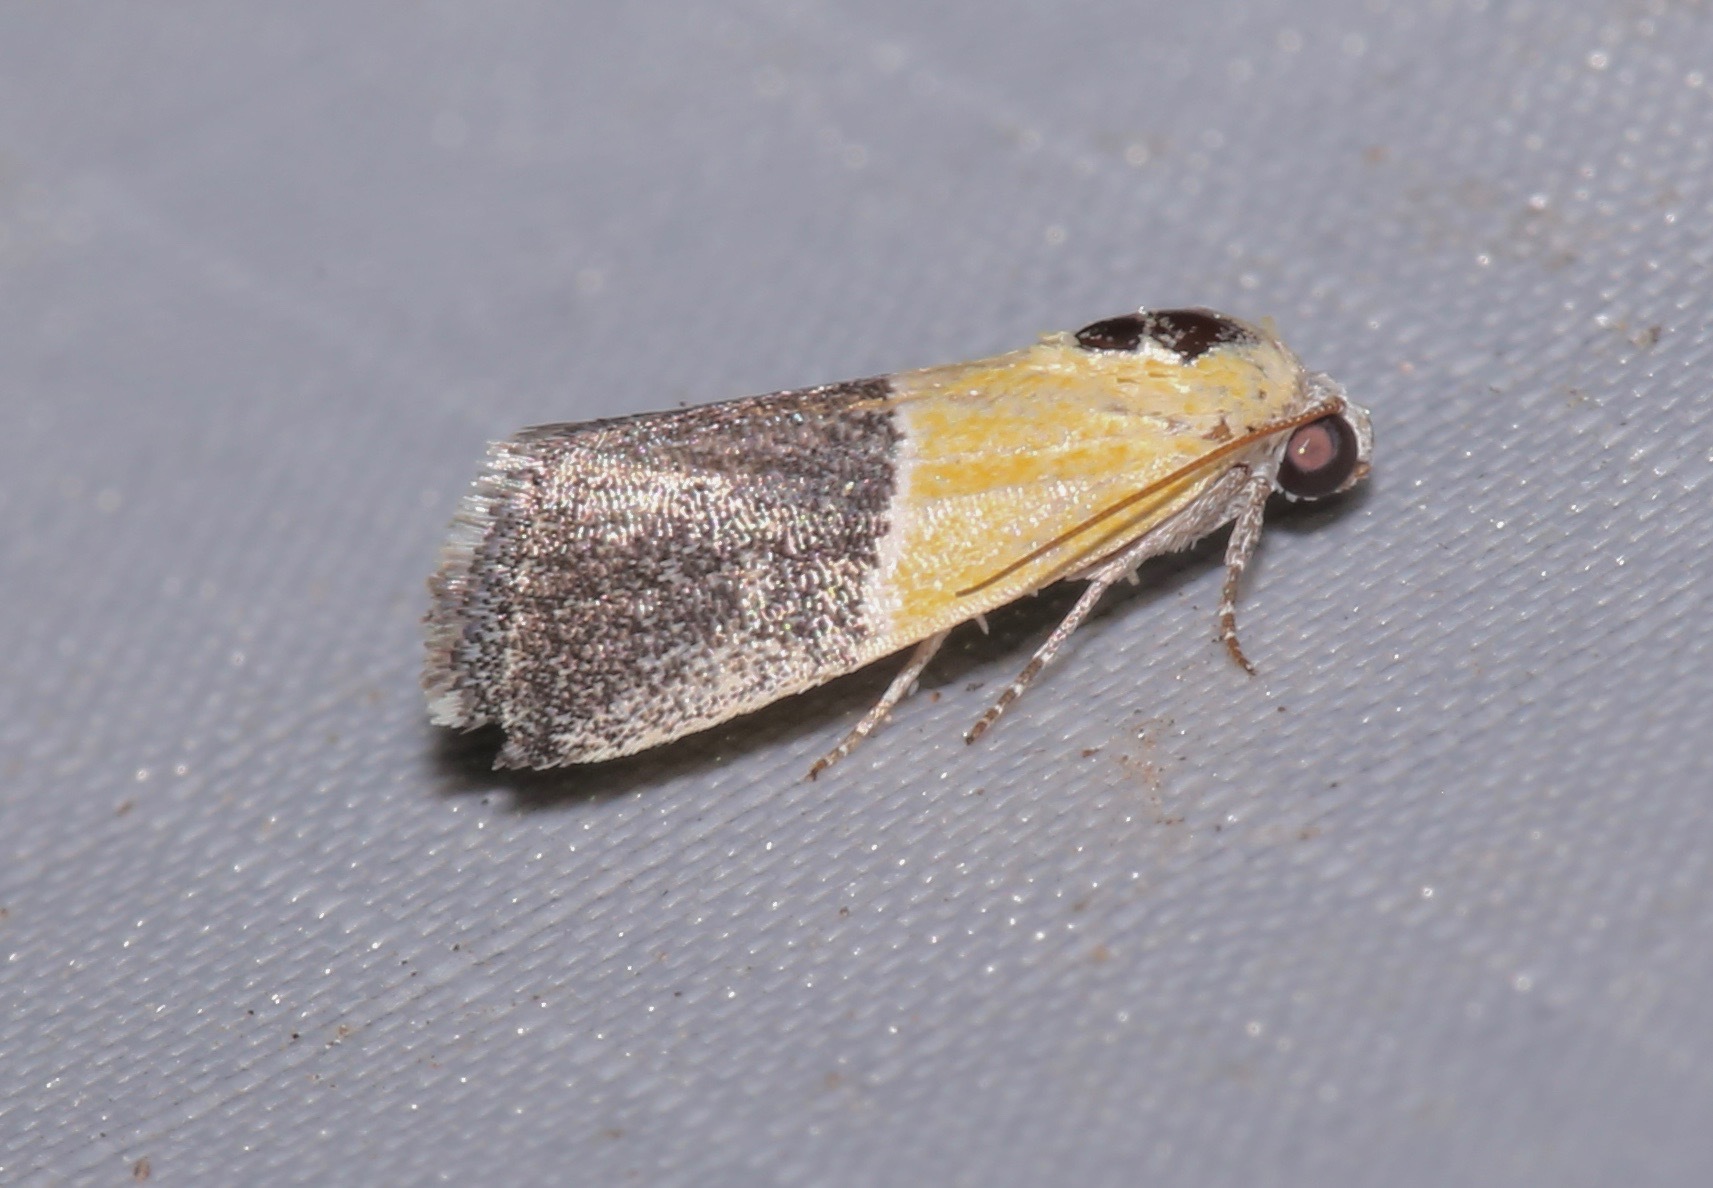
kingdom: Animalia
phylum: Arthropoda
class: Insecta
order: Lepidoptera
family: Noctuidae
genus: Acontia
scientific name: Acontia clausula
